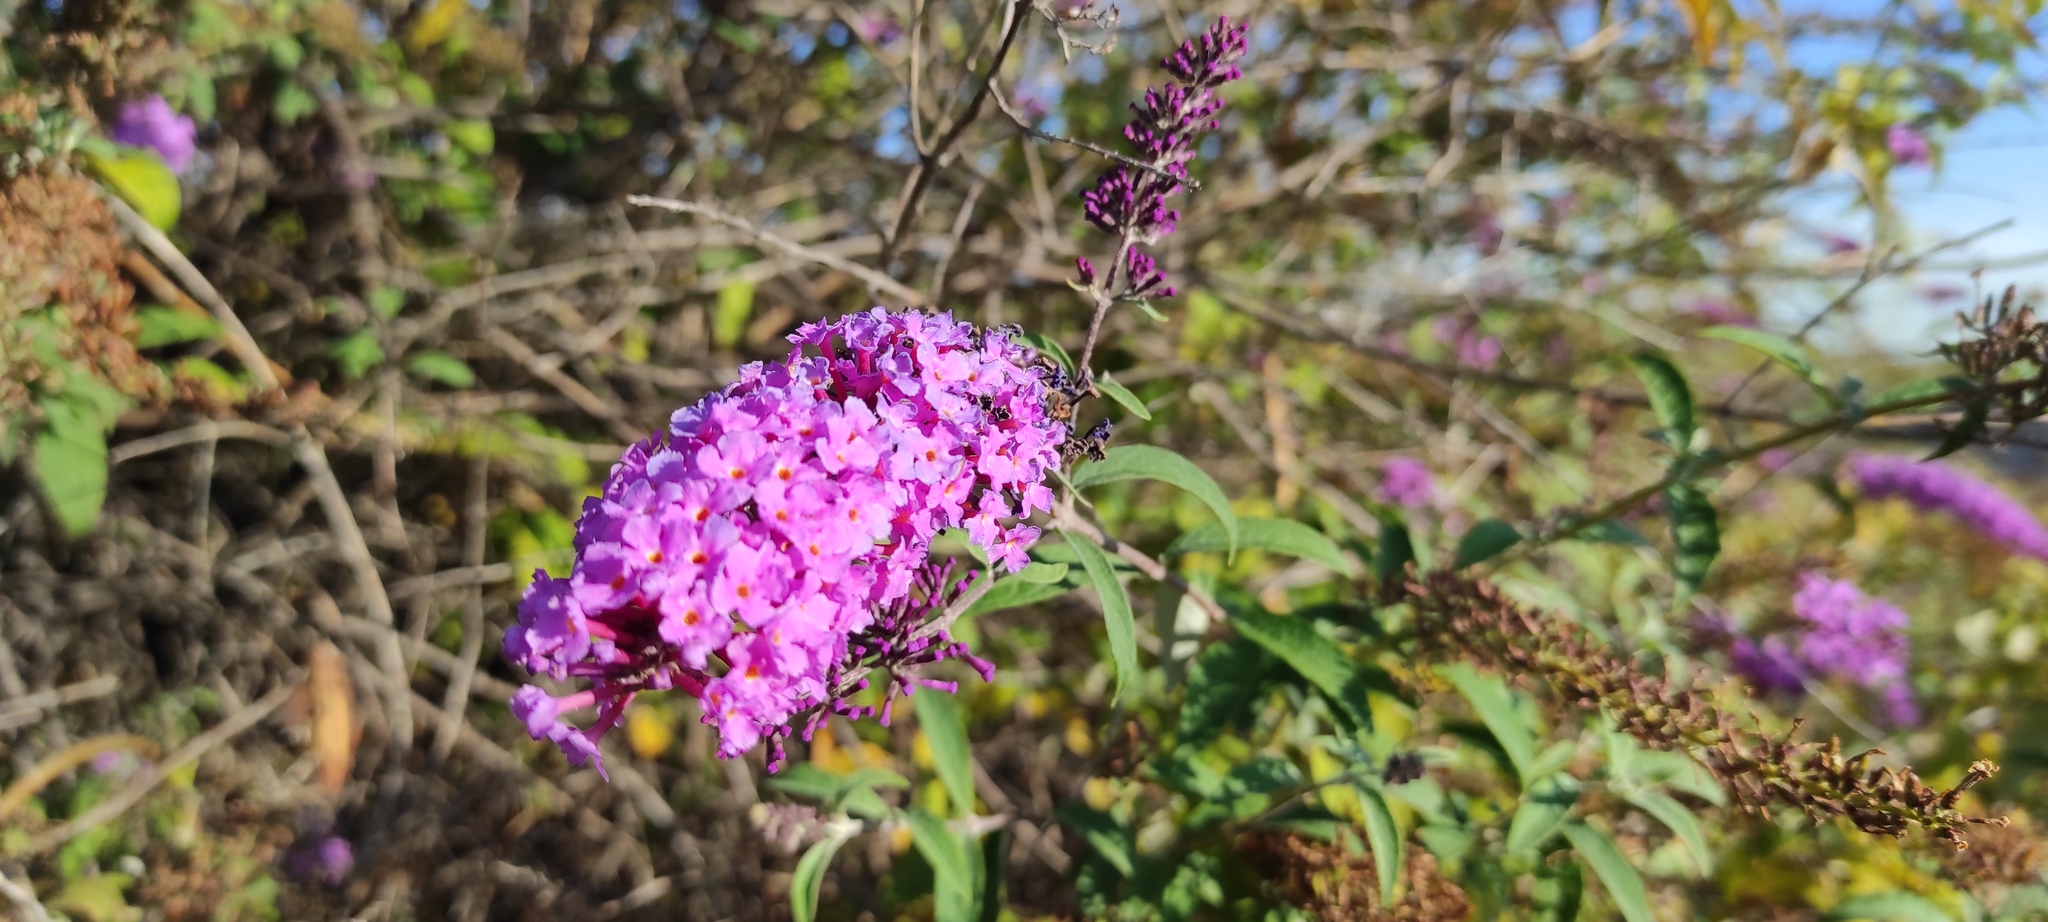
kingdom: Plantae
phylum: Tracheophyta
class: Magnoliopsida
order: Lamiales
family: Scrophulariaceae
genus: Buddleja
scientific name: Buddleja davidii
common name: Butterfly-bush
